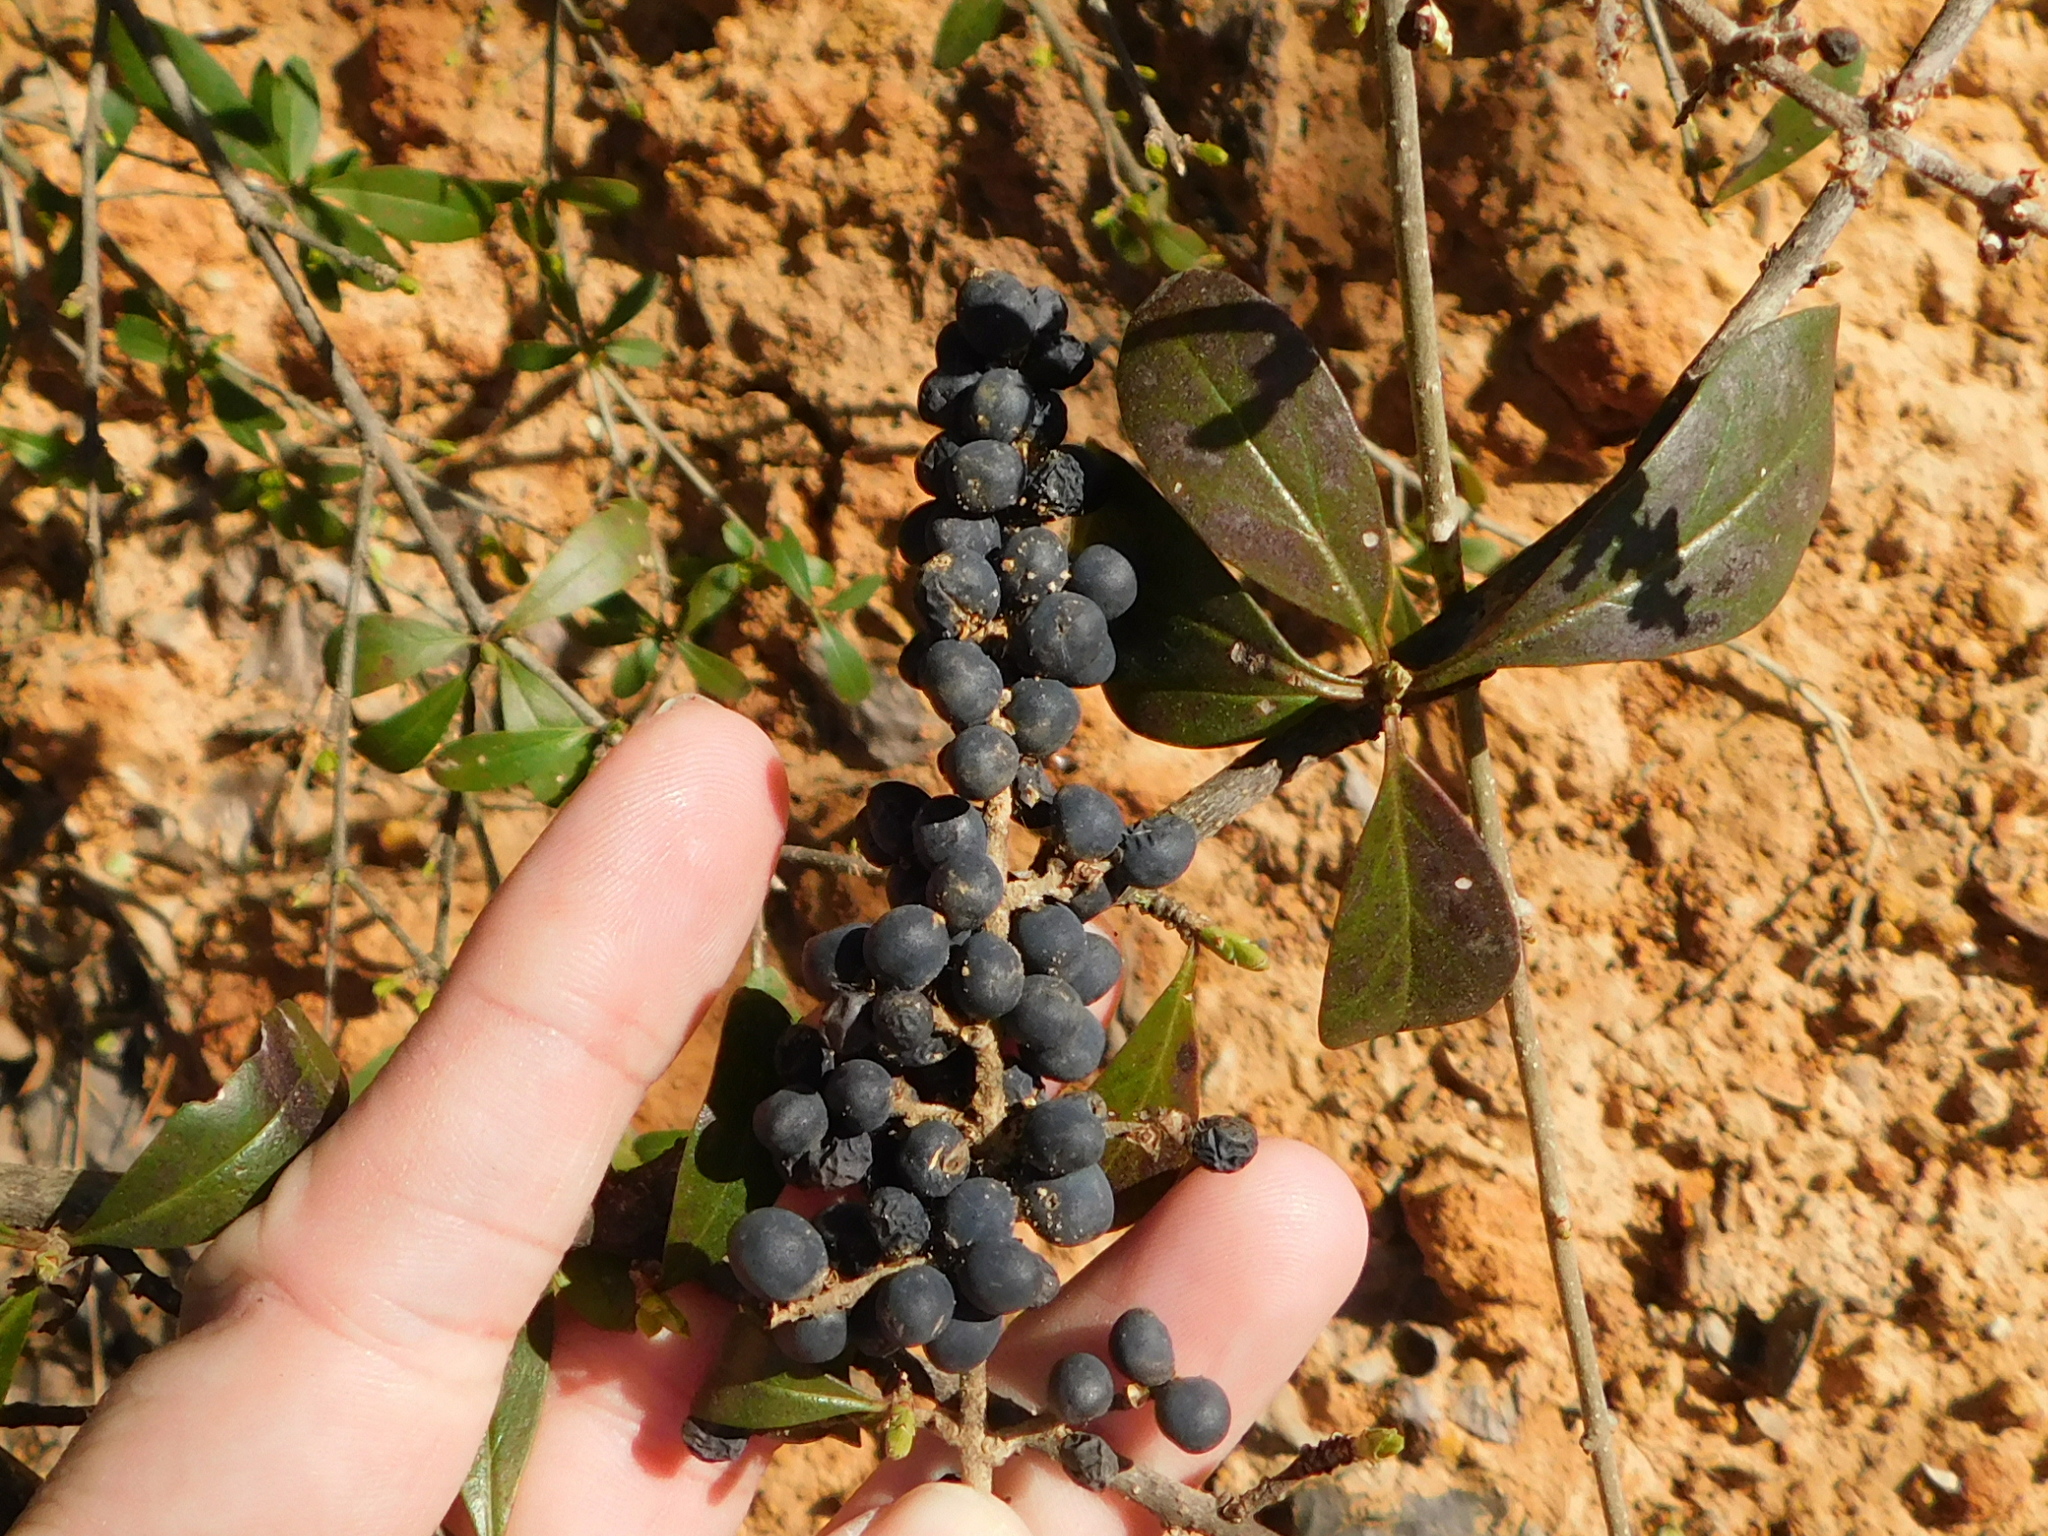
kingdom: Plantae
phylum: Tracheophyta
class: Magnoliopsida
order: Lamiales
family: Oleaceae
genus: Ligustrum
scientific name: Ligustrum quihoui
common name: Waxyleaf privet
